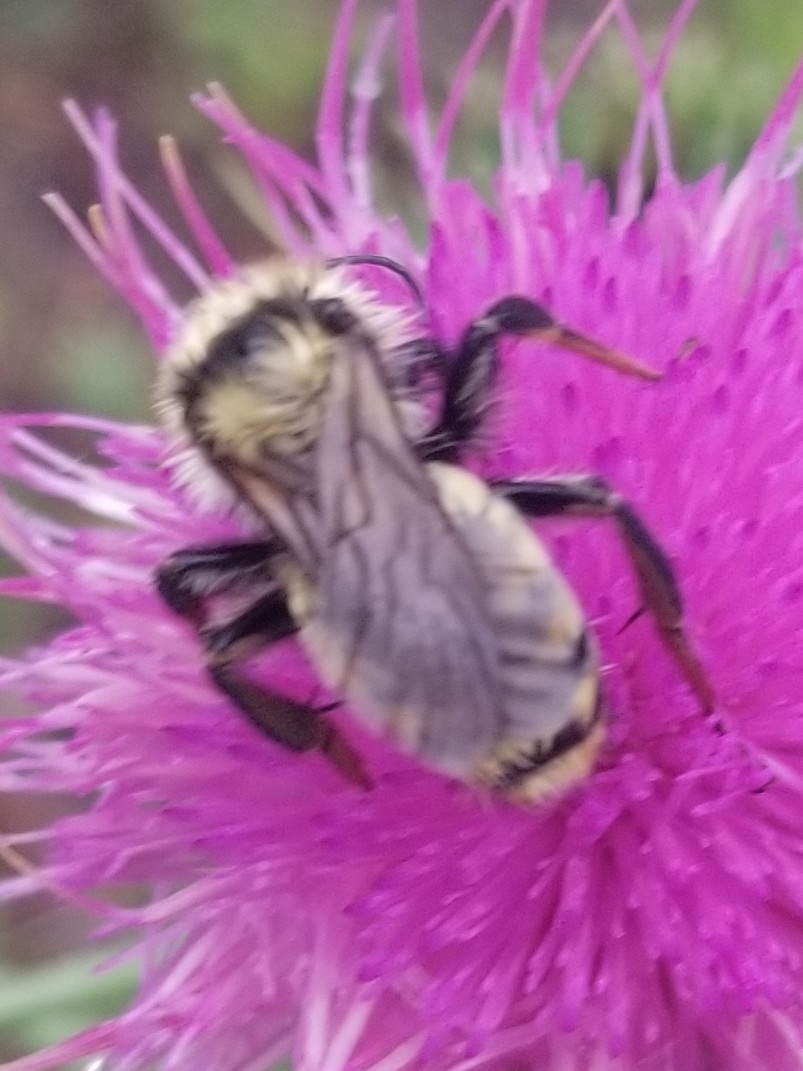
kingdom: Animalia
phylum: Arthropoda
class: Insecta
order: Hymenoptera
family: Apidae
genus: Bombus
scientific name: Bombus fervidus
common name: Yellow bumble bee
